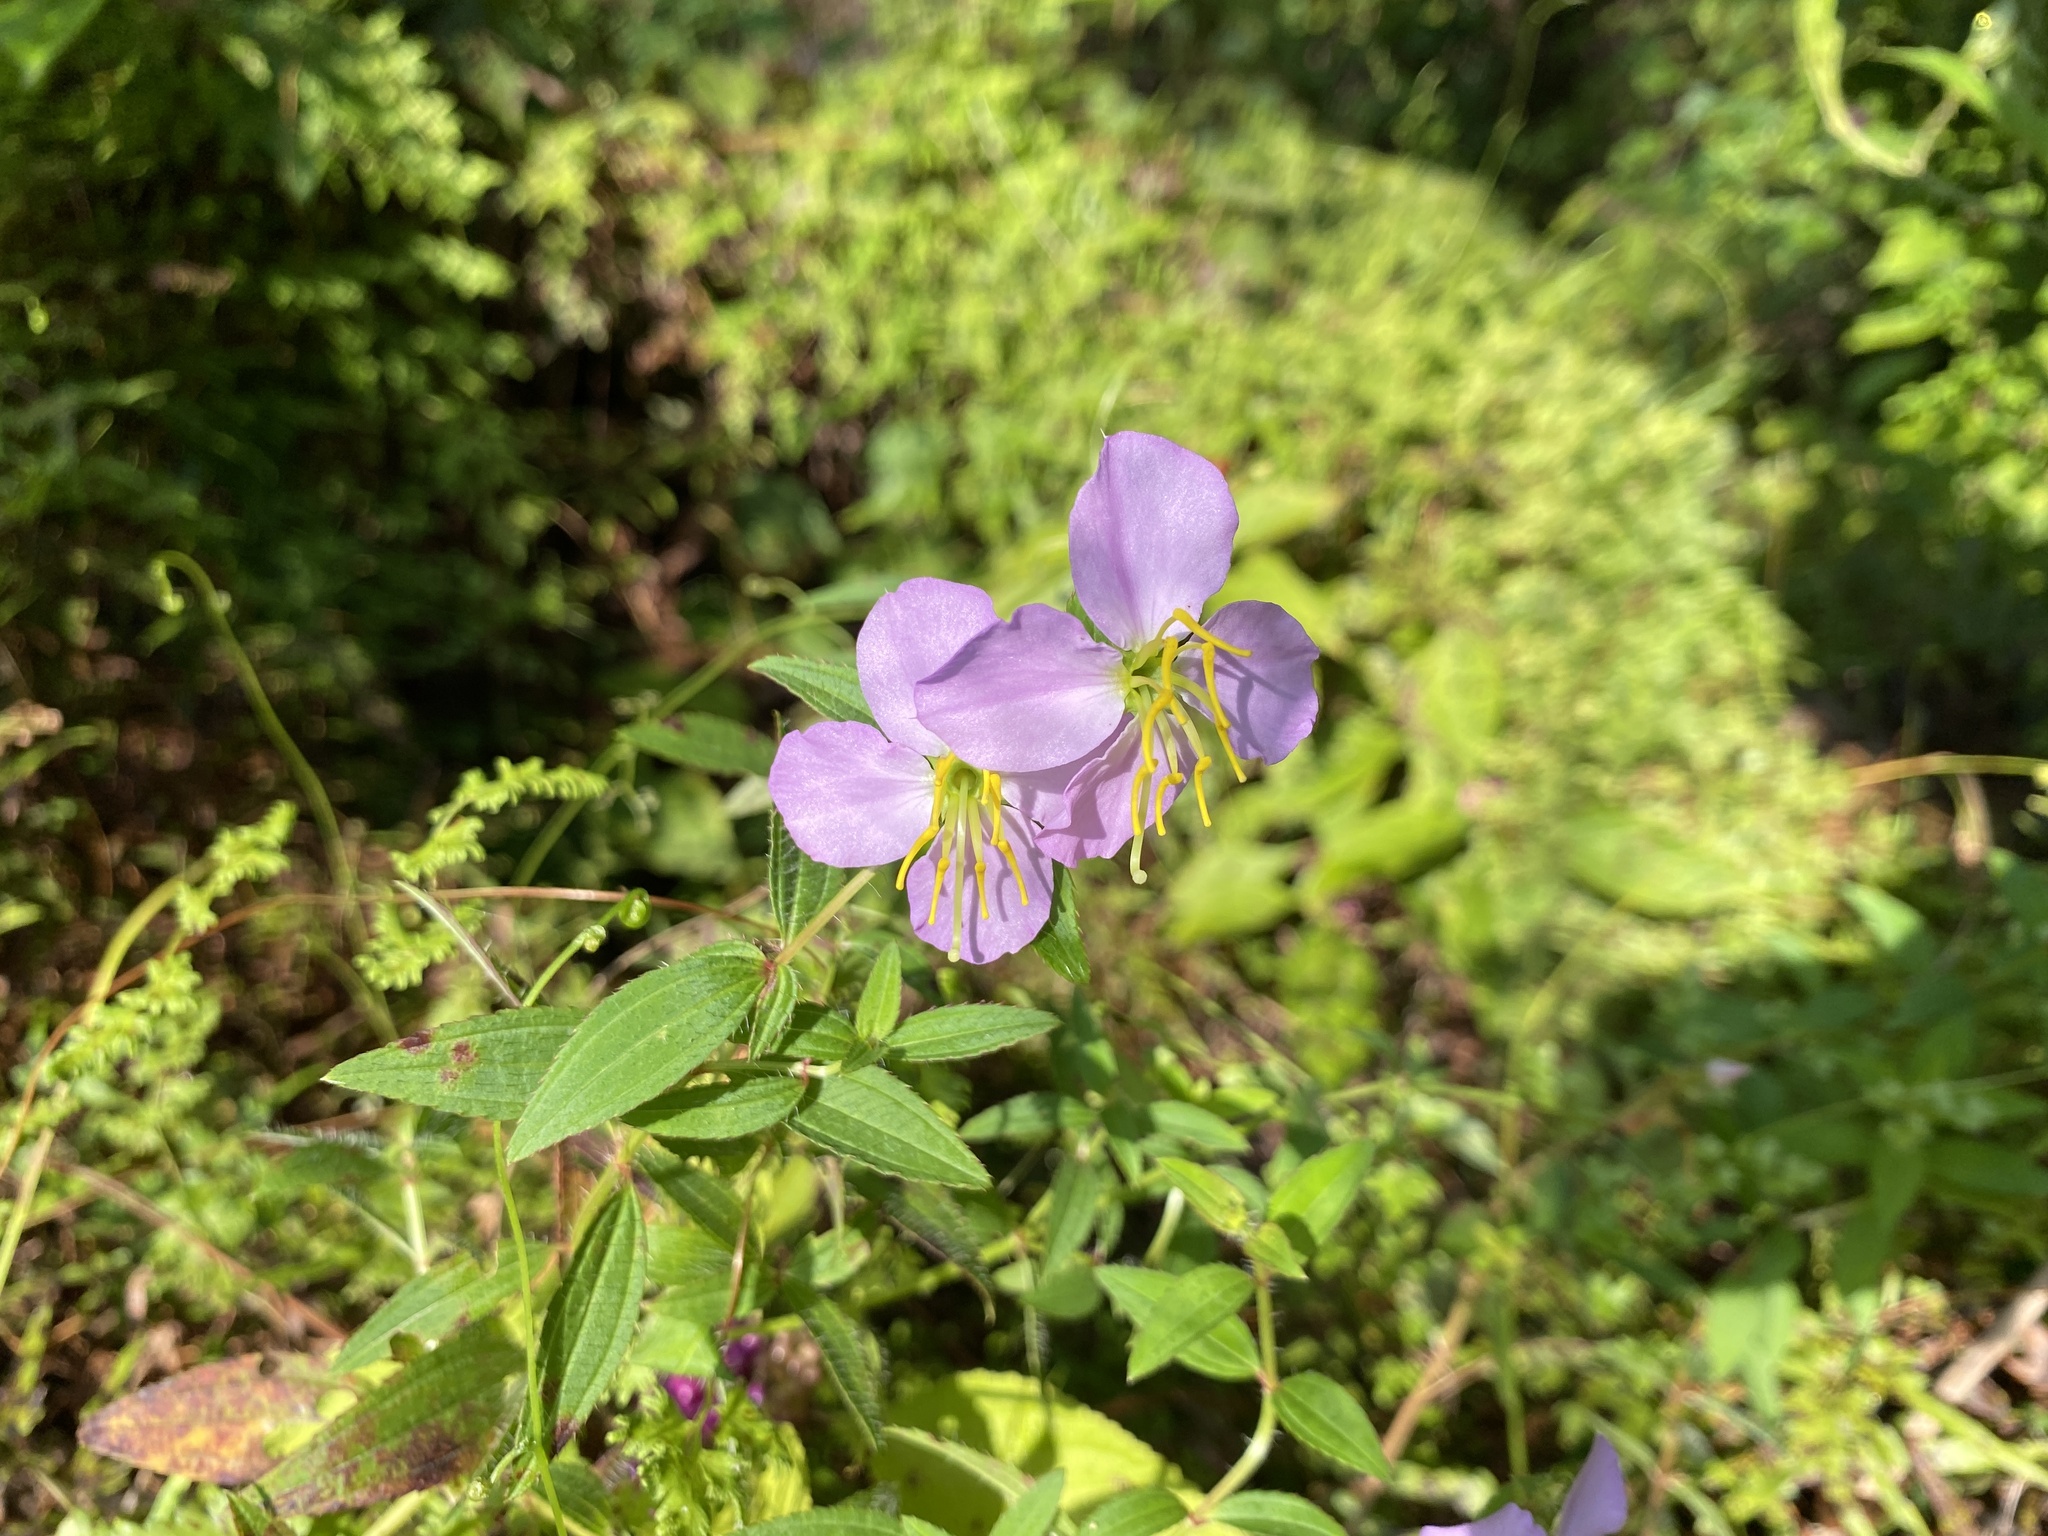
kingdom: Plantae
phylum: Tracheophyta
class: Magnoliopsida
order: Myrtales
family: Melastomataceae
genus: Rhexia
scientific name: Rhexia mariana
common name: Dull meadow-pitcher
